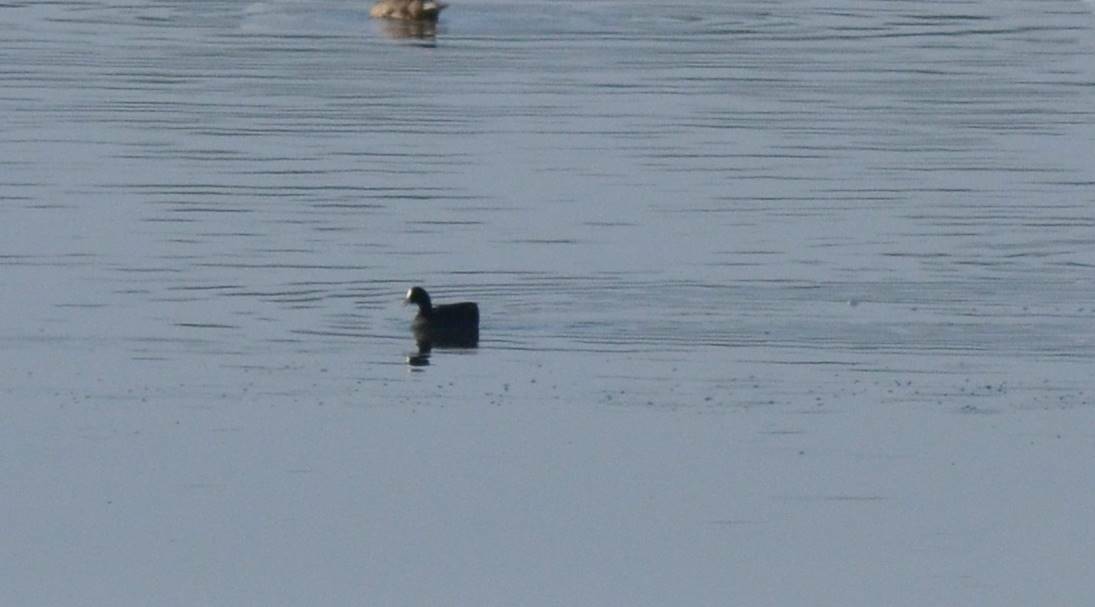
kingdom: Animalia
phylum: Chordata
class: Aves
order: Gruiformes
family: Rallidae
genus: Fulica
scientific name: Fulica atra
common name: Eurasian coot
